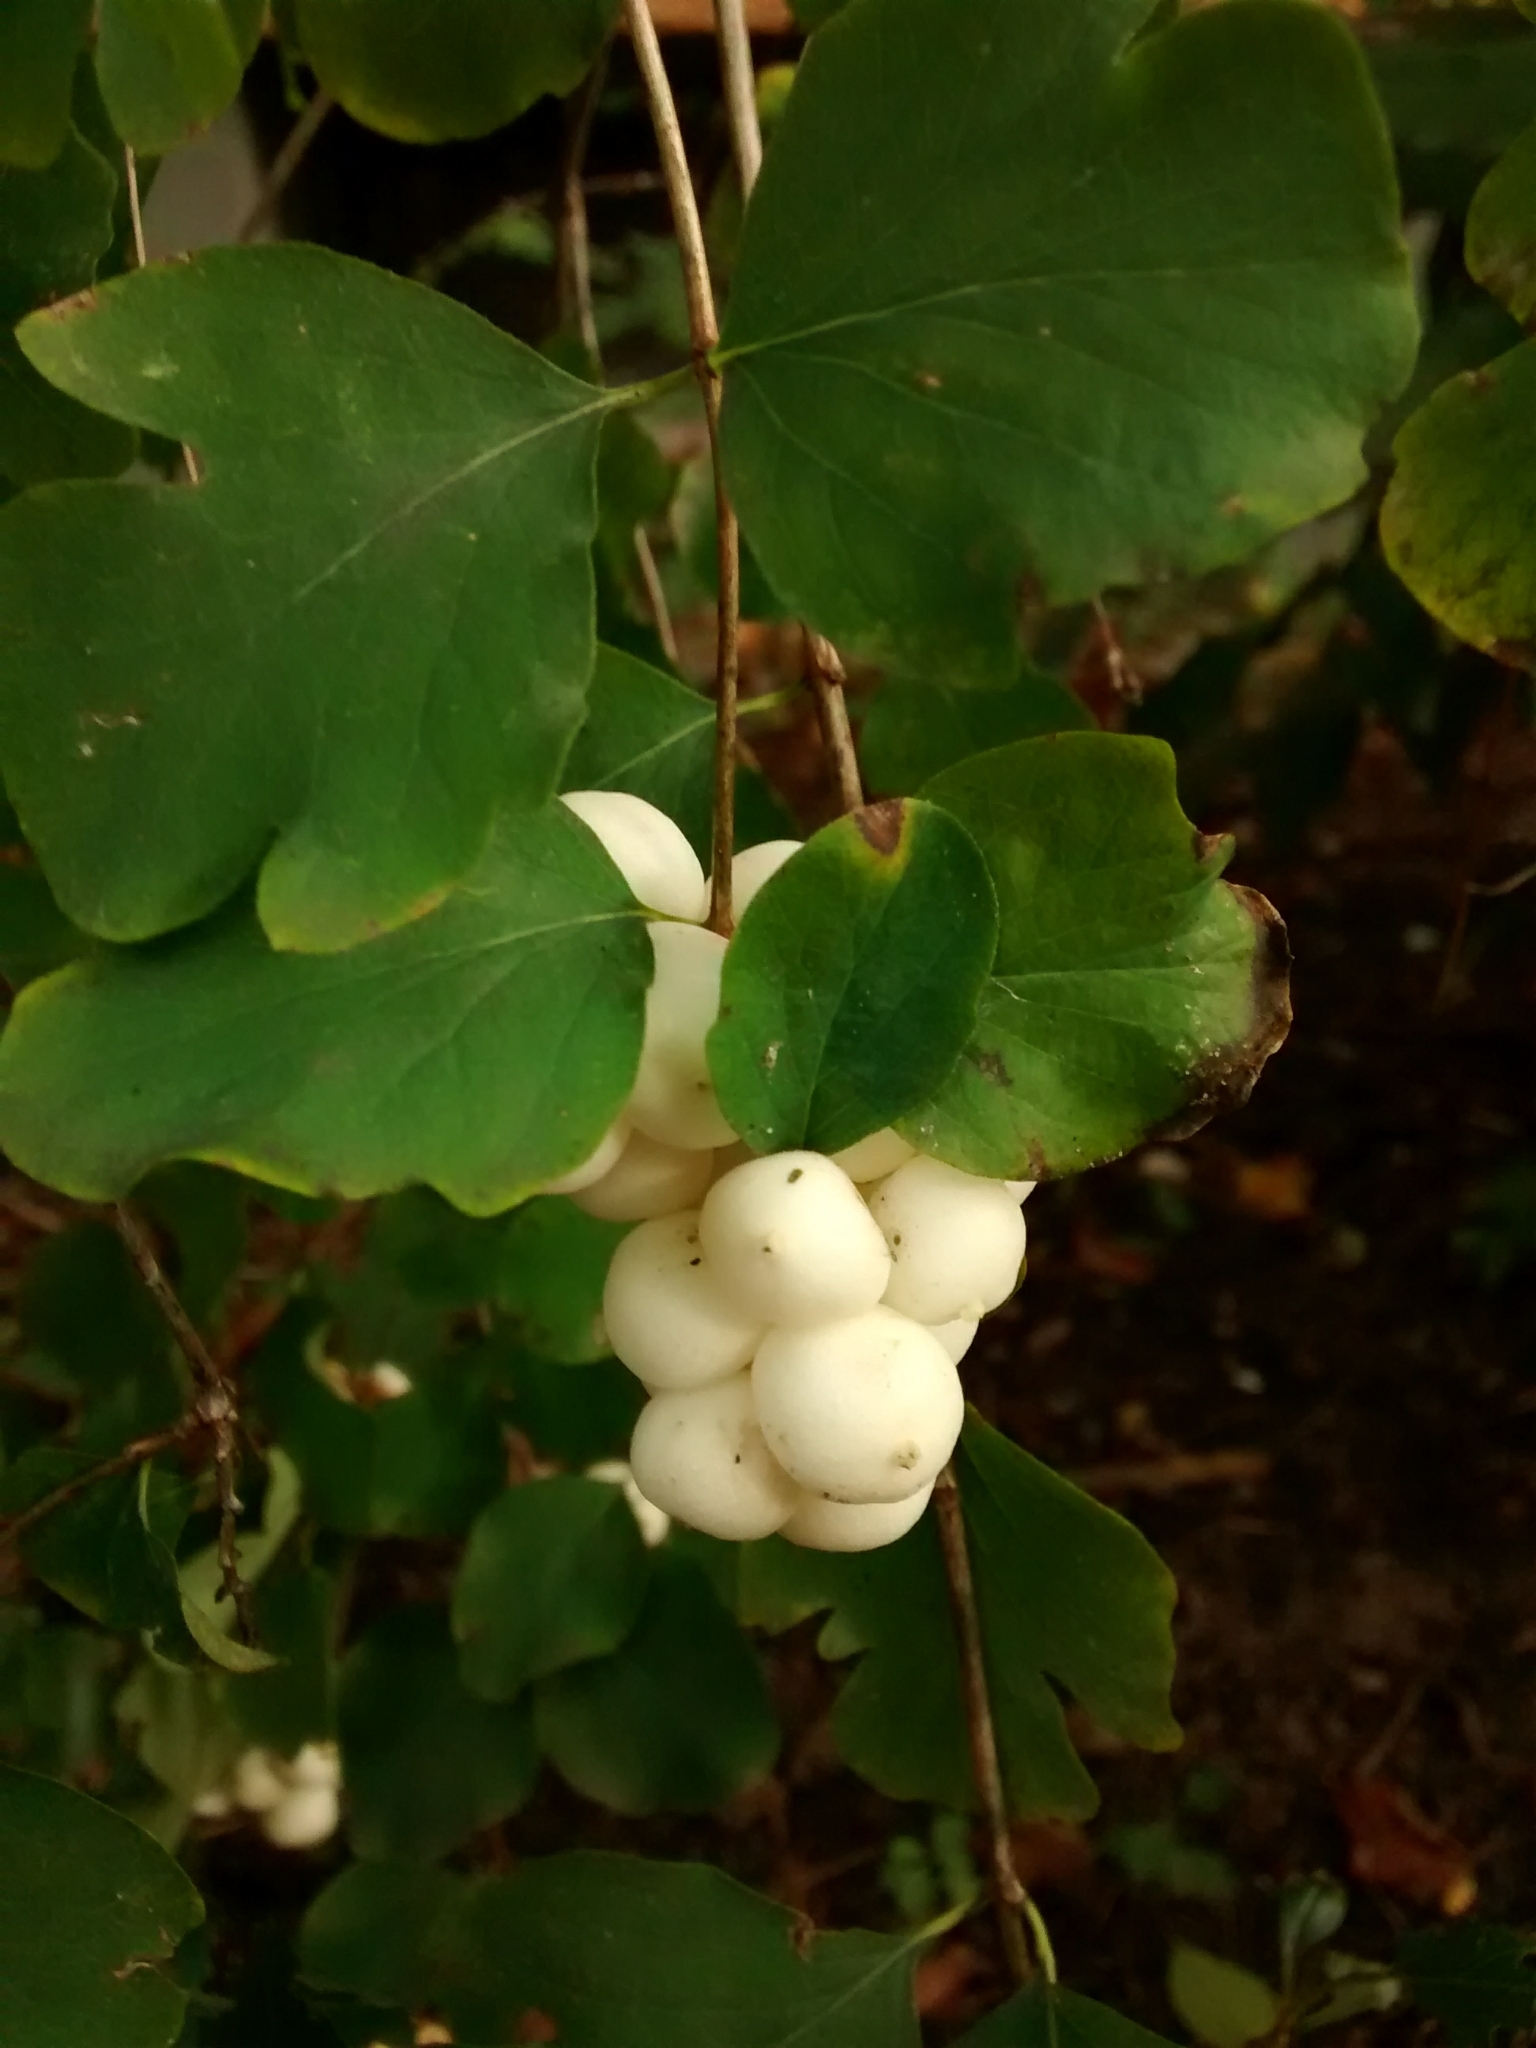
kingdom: Plantae
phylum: Tracheophyta
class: Magnoliopsida
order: Dipsacales
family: Caprifoliaceae
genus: Symphoricarpos
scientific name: Symphoricarpos albus
